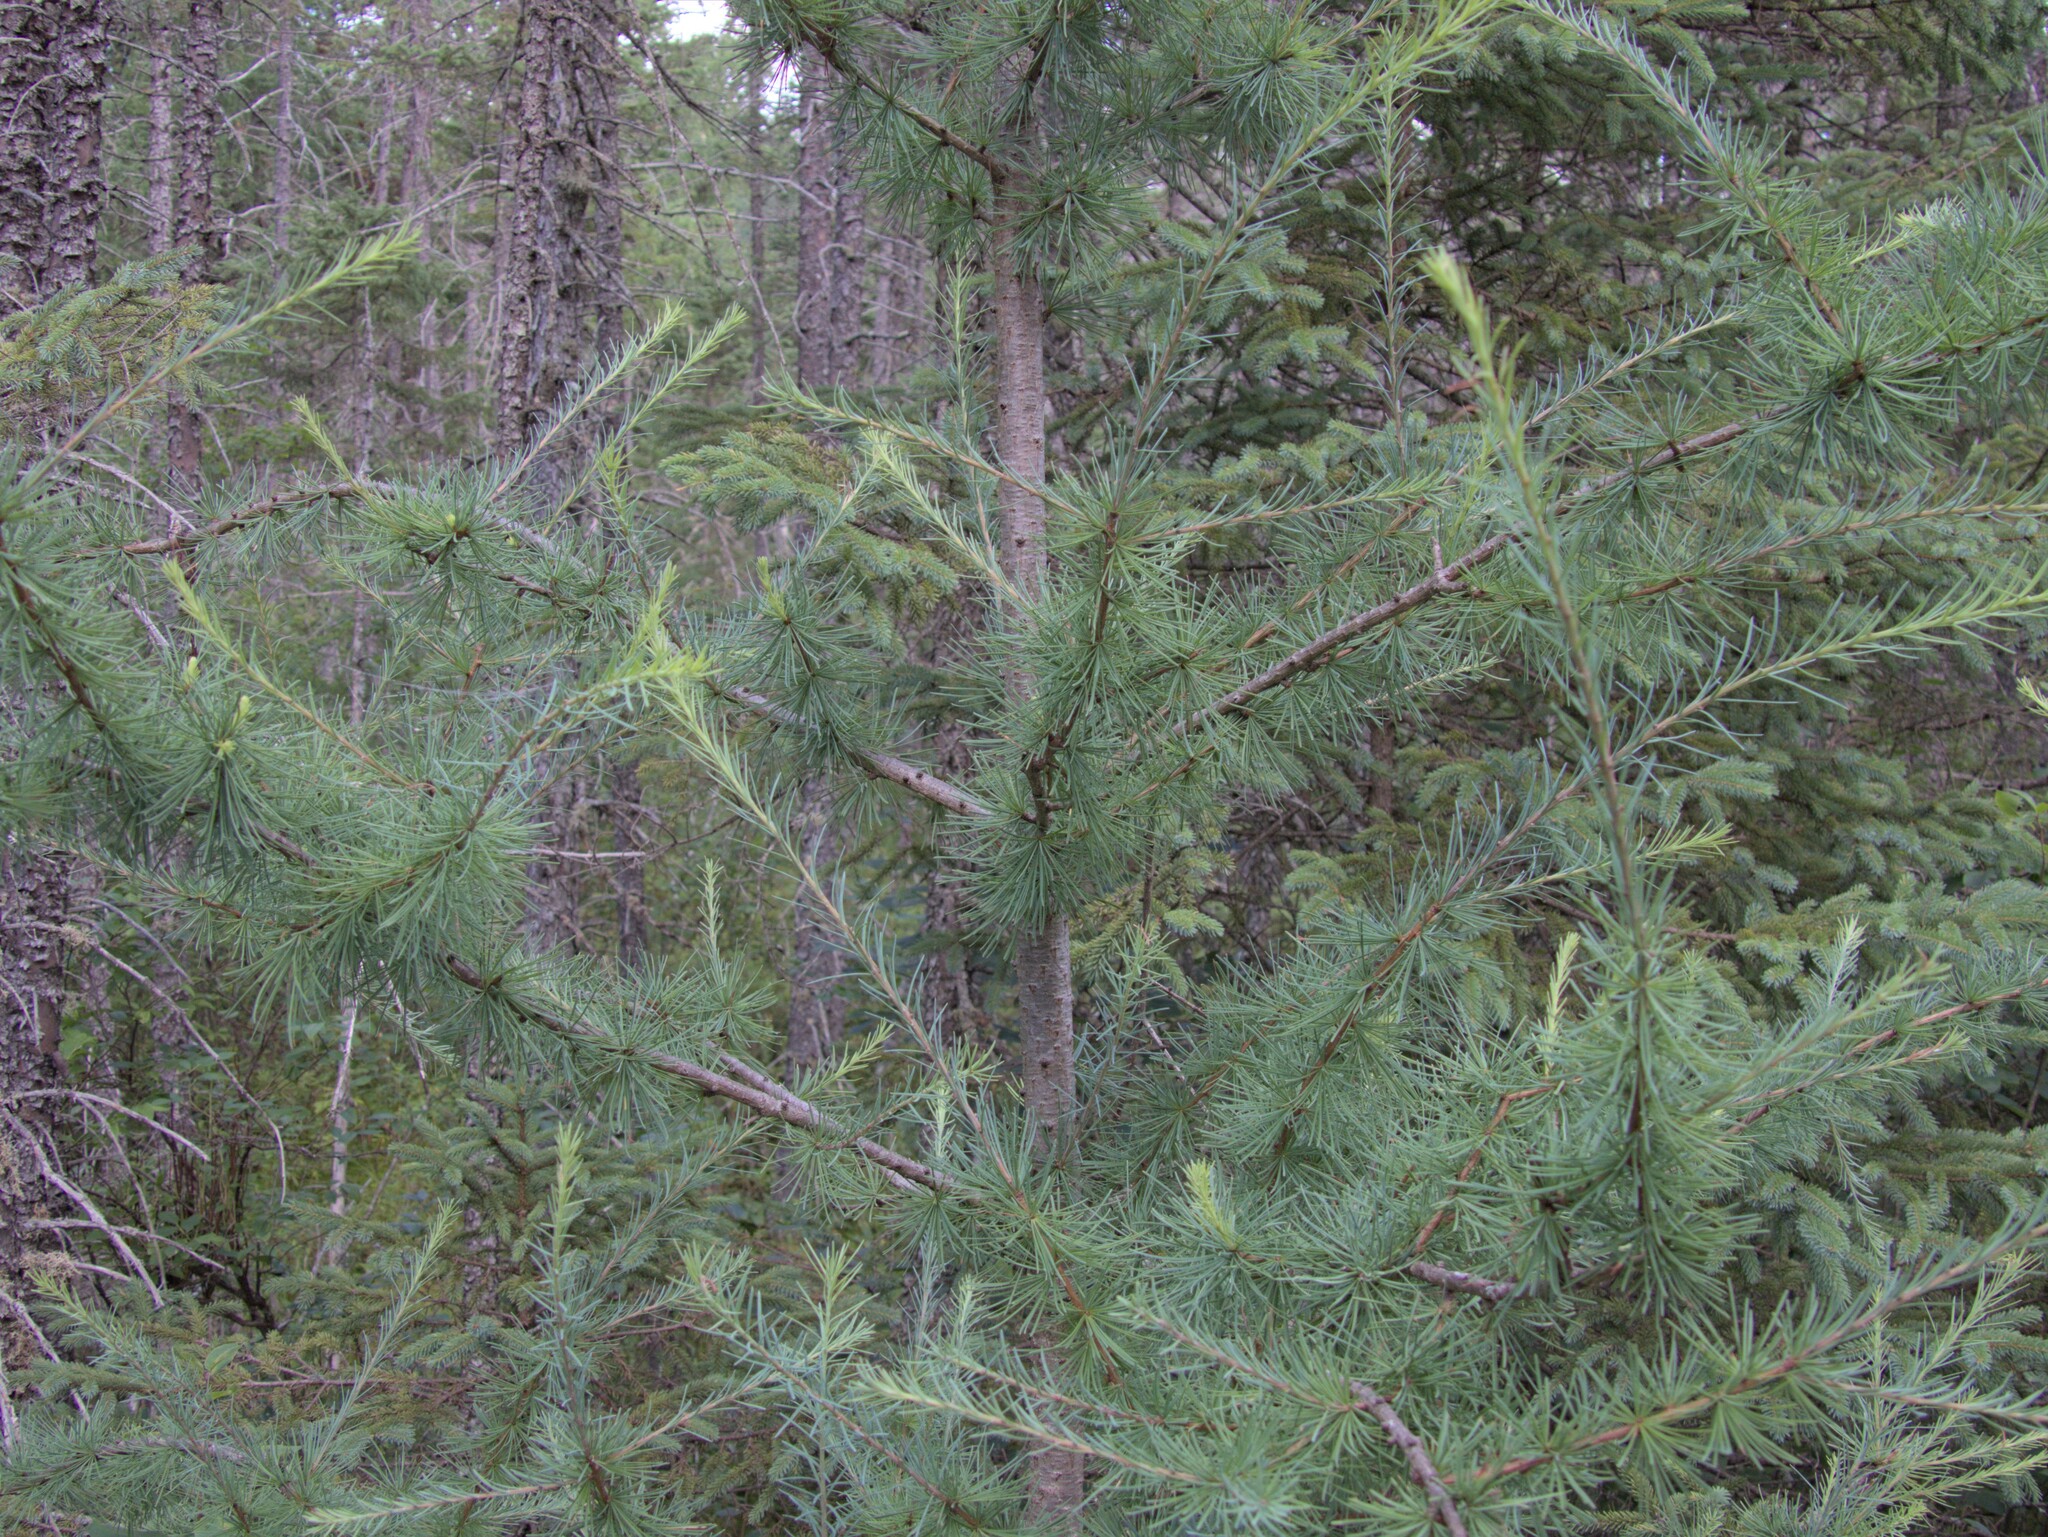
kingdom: Plantae
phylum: Tracheophyta
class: Pinopsida
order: Pinales
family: Pinaceae
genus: Larix
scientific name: Larix laricina
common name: American larch
